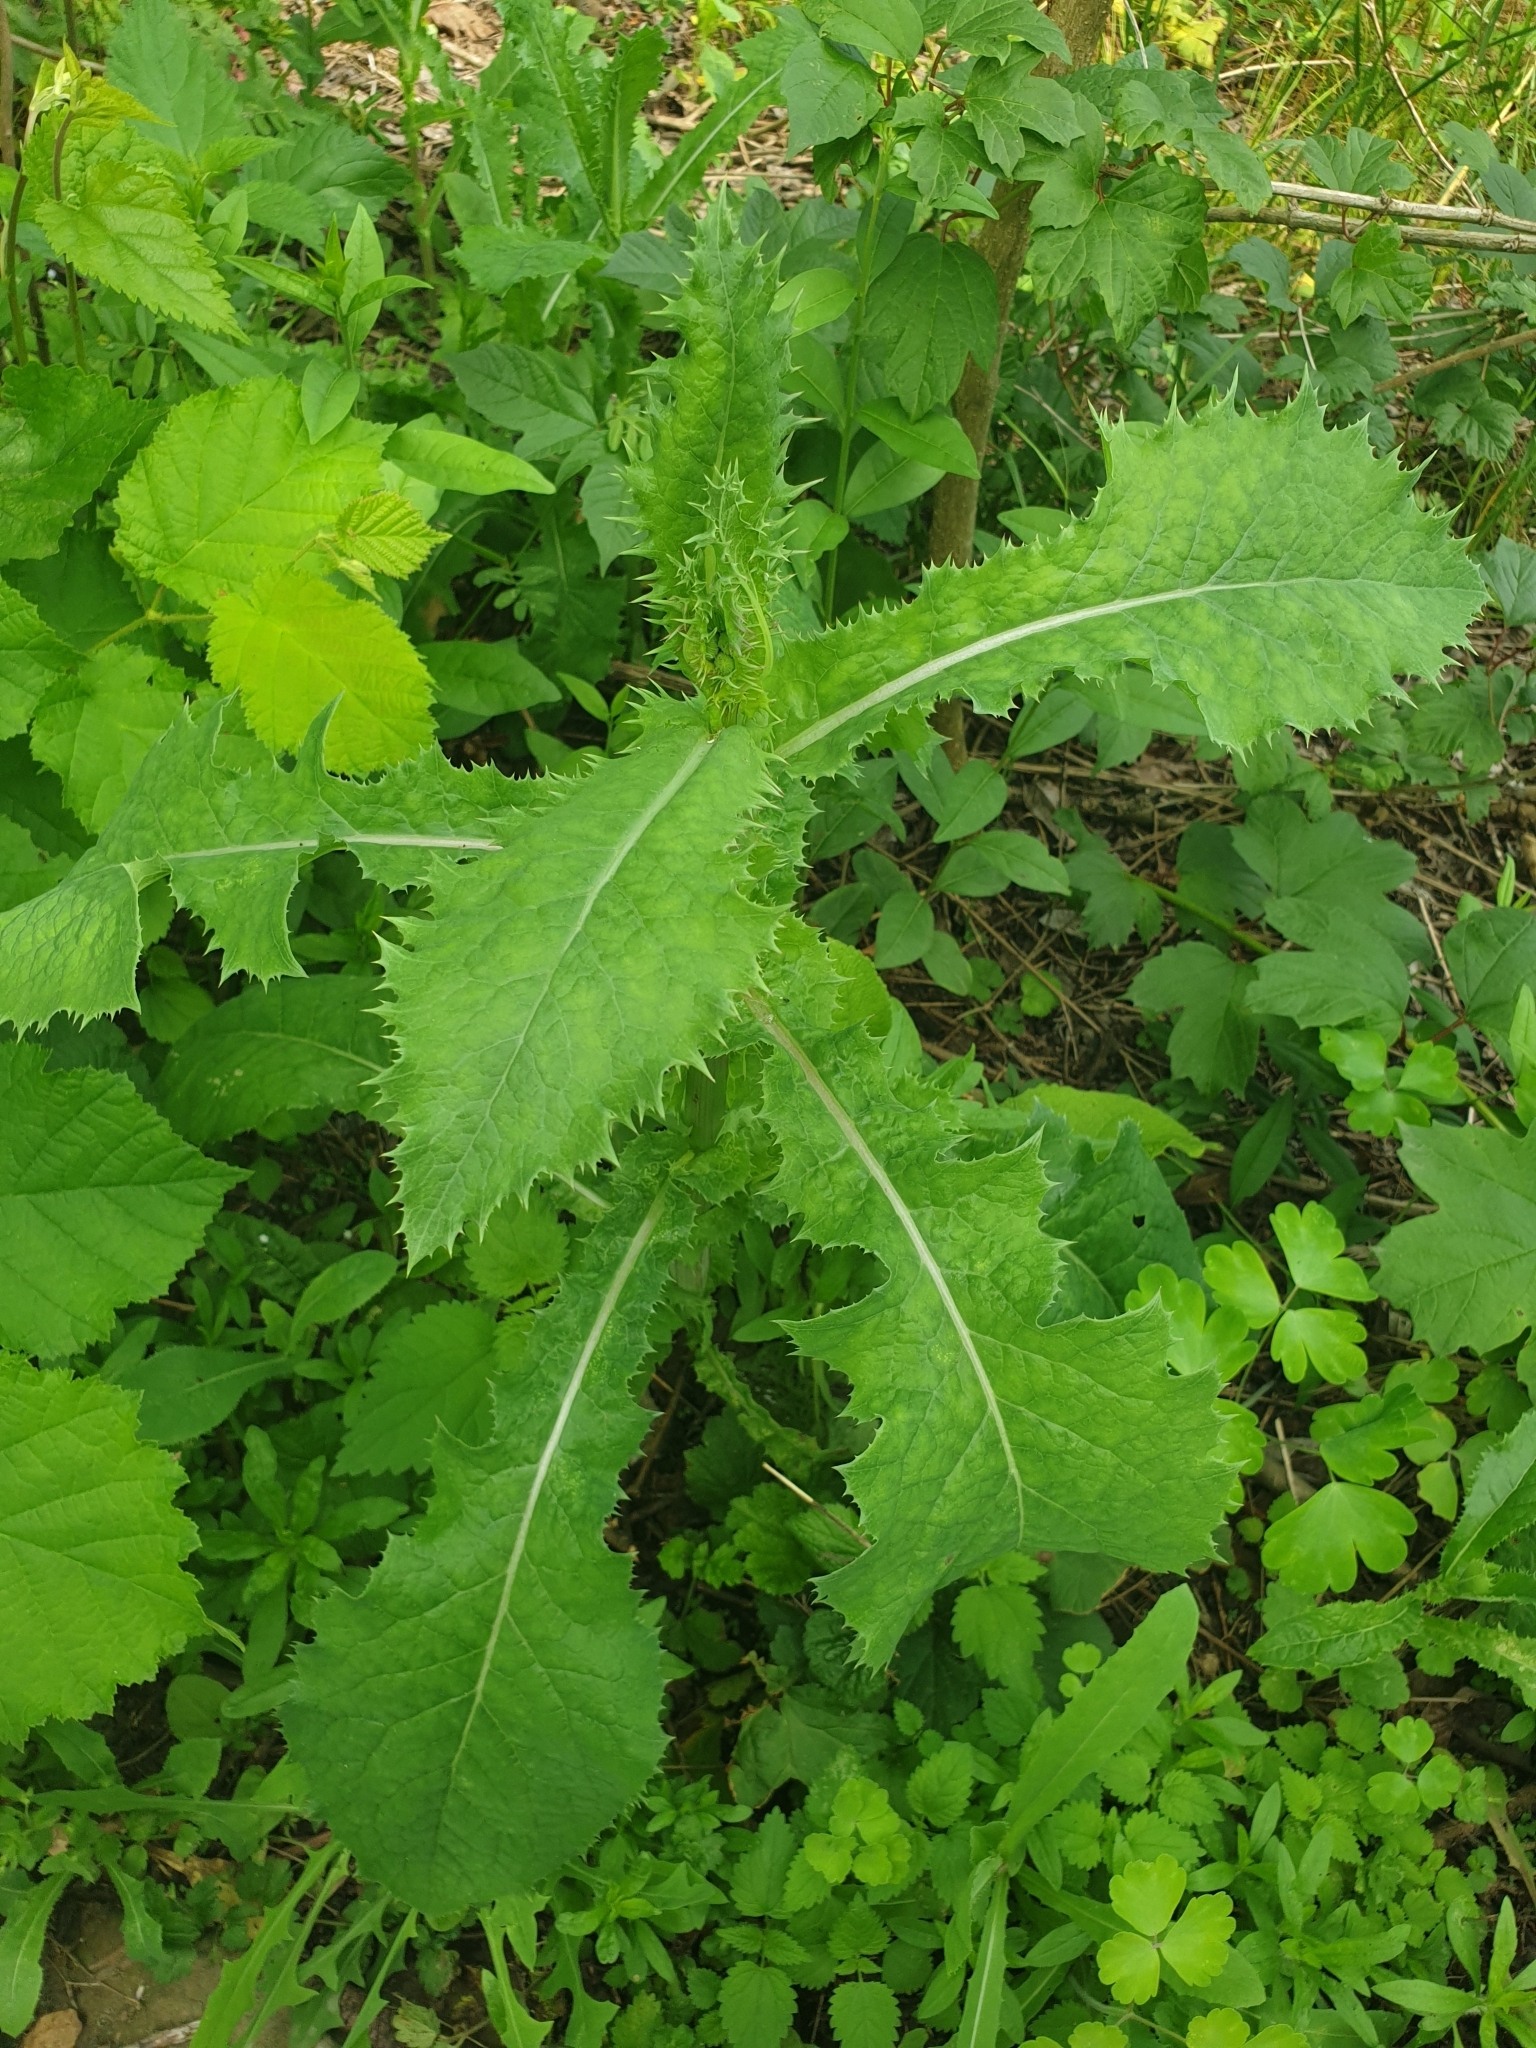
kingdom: Plantae
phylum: Tracheophyta
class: Magnoliopsida
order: Asterales
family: Asteraceae
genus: Sonchus
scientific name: Sonchus asper
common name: Prickly sow-thistle
